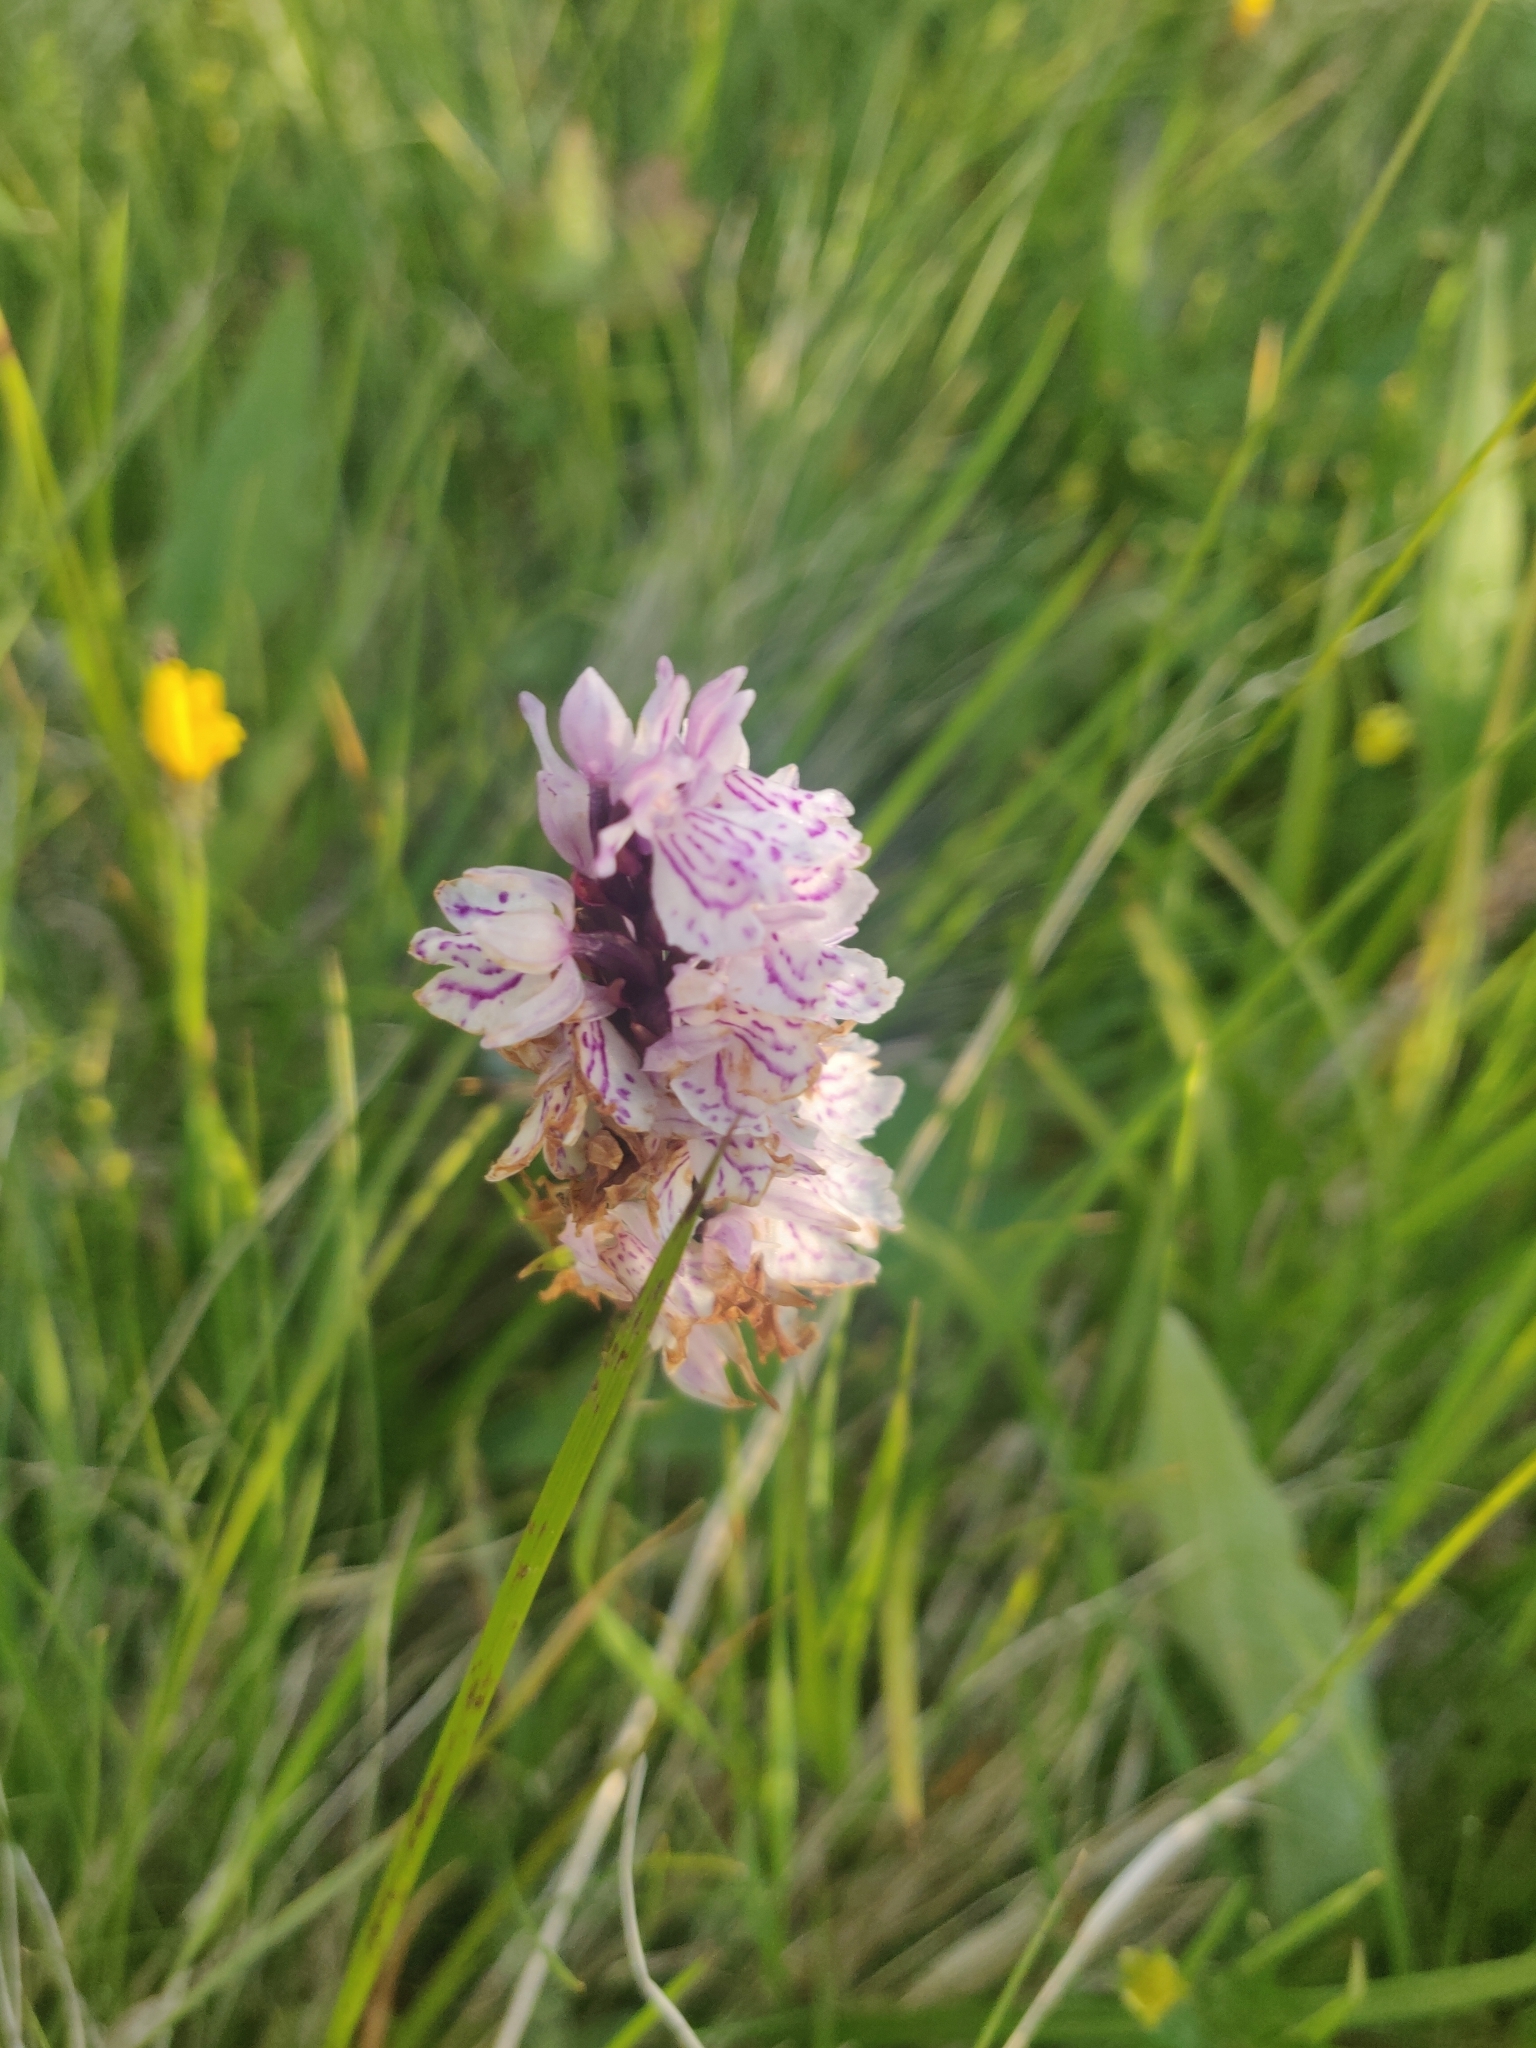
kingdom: Plantae
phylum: Tracheophyta
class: Liliopsida
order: Asparagales
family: Orchidaceae
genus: Dactylorhiza
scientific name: Dactylorhiza maculata
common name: Heath spotted-orchid
